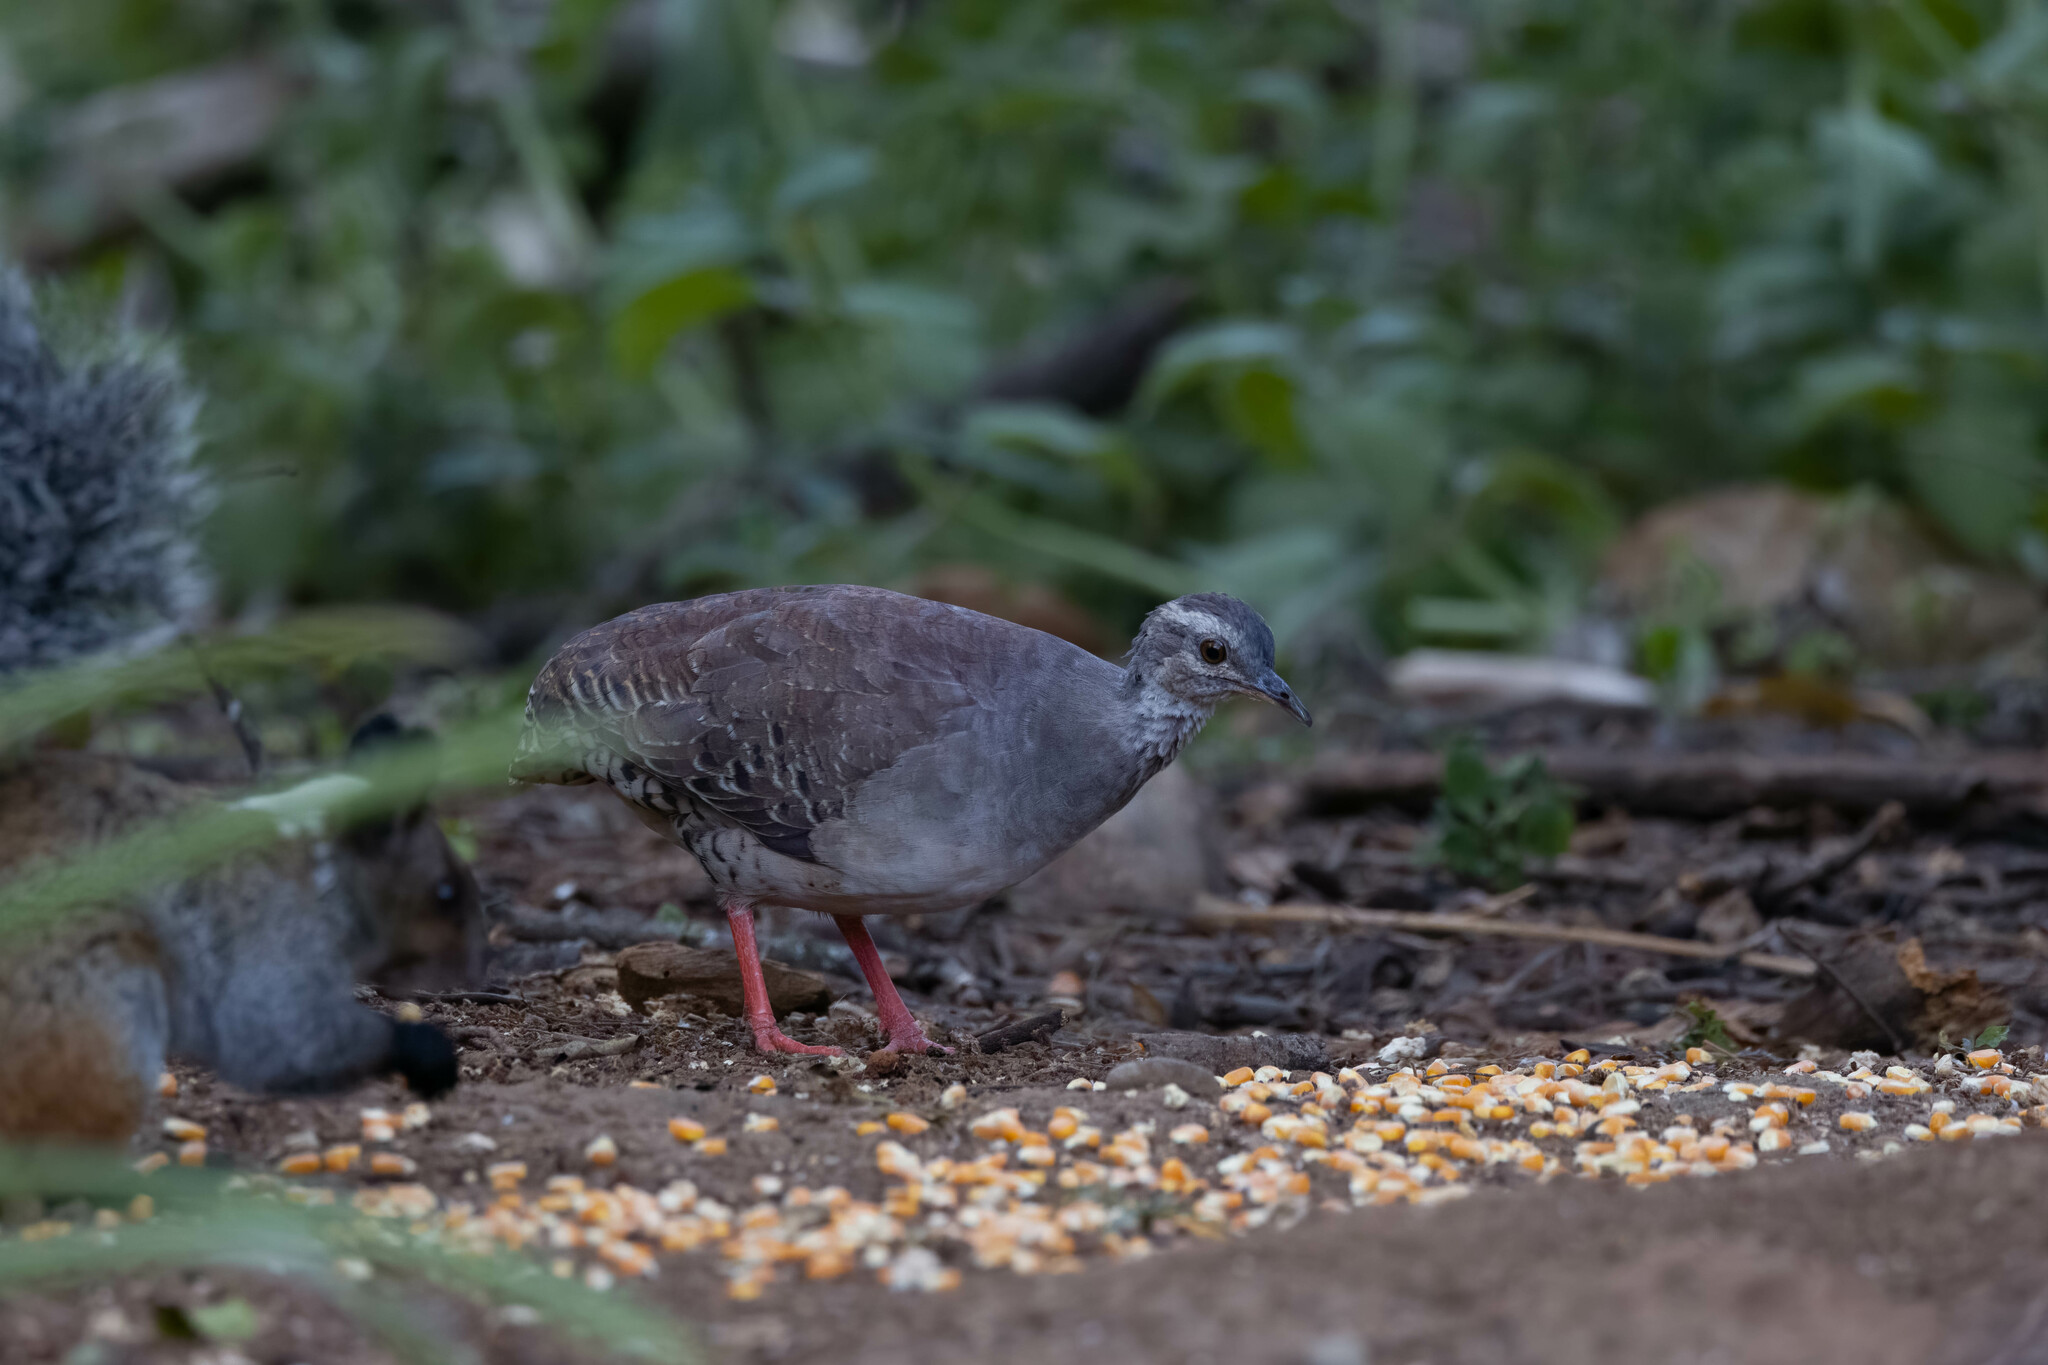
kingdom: Animalia
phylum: Chordata
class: Aves
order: Tinamiformes
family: Tinamidae
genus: Crypturellus
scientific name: Crypturellus transfasciatus
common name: Pale-browed tinamou
